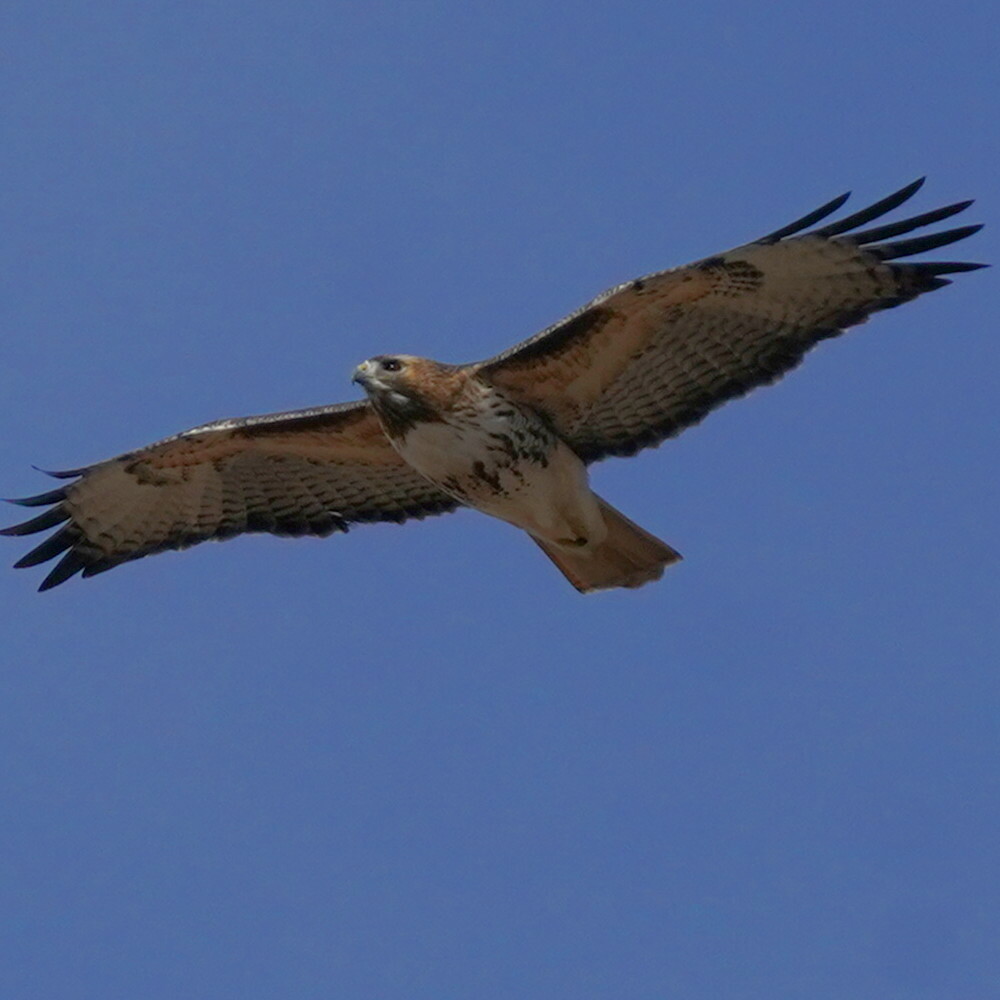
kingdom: Animalia
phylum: Chordata
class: Aves
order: Accipitriformes
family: Accipitridae
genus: Buteo
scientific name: Buteo jamaicensis
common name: Red-tailed hawk
